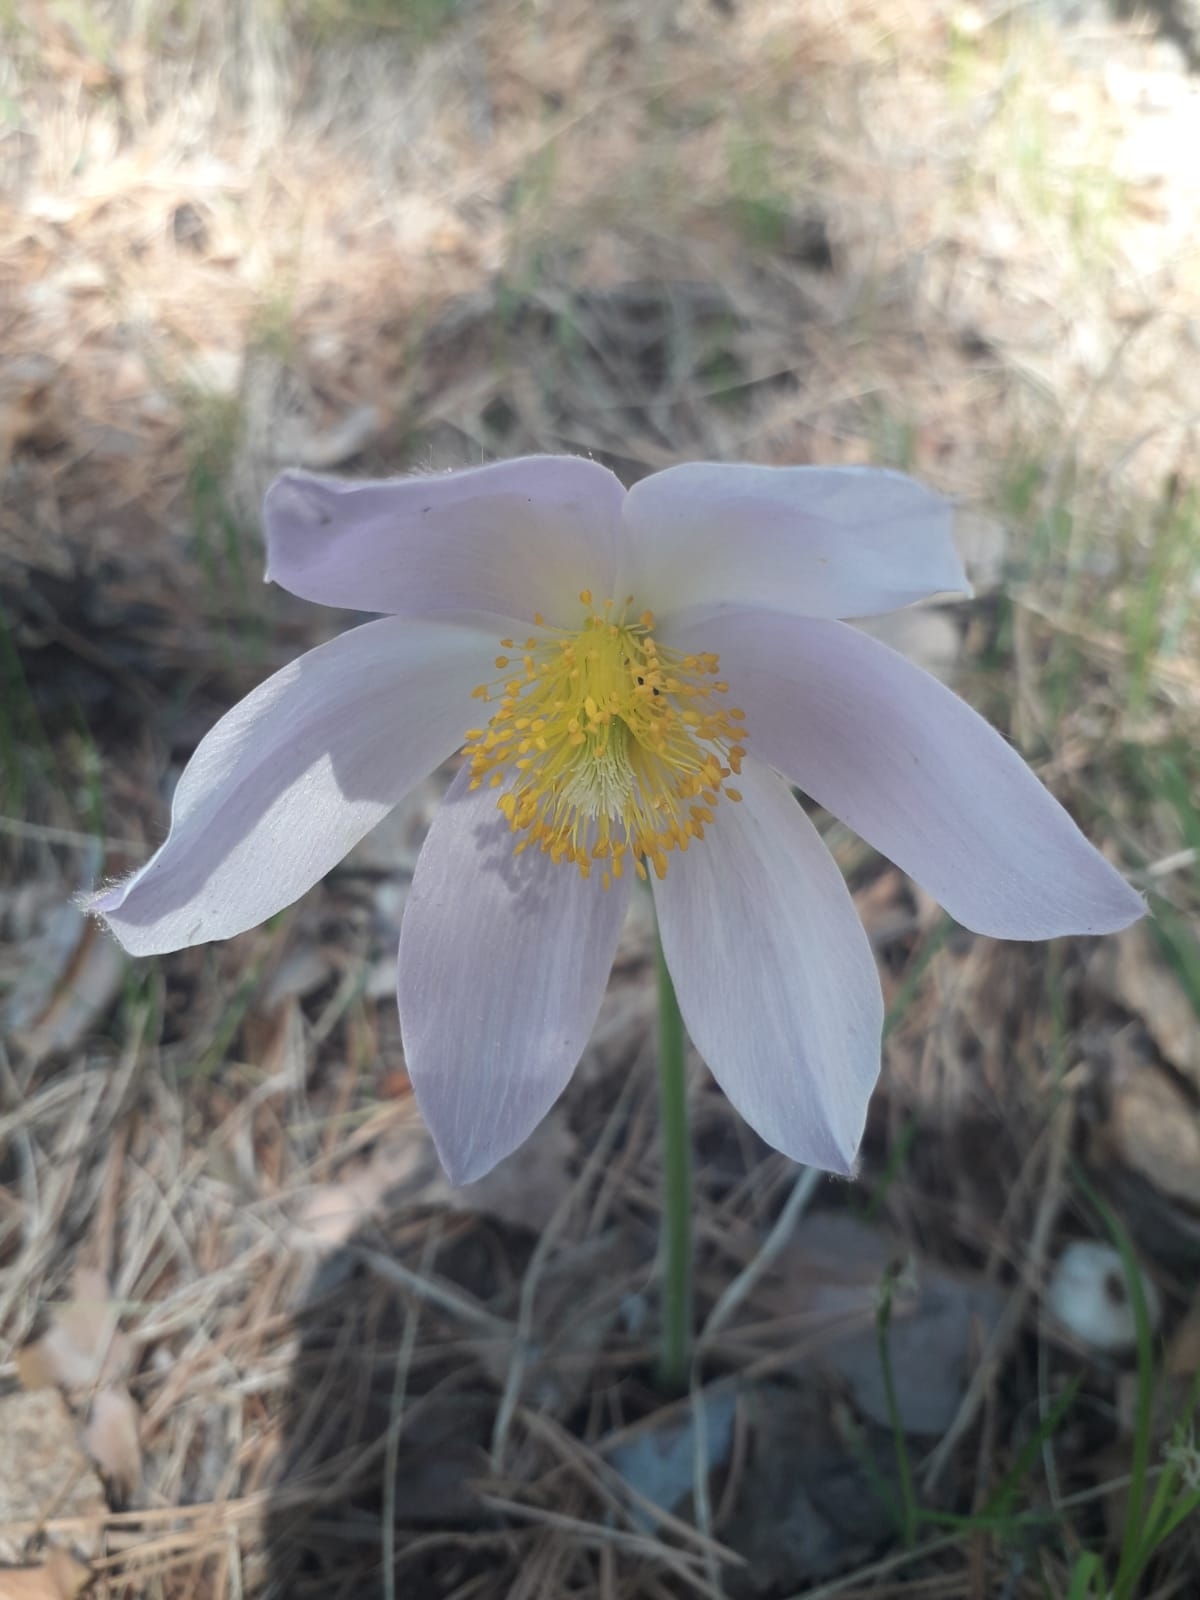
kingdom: Plantae
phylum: Tracheophyta
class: Magnoliopsida
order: Ranunculales
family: Ranunculaceae
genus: Pulsatilla
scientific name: Pulsatilla patens
